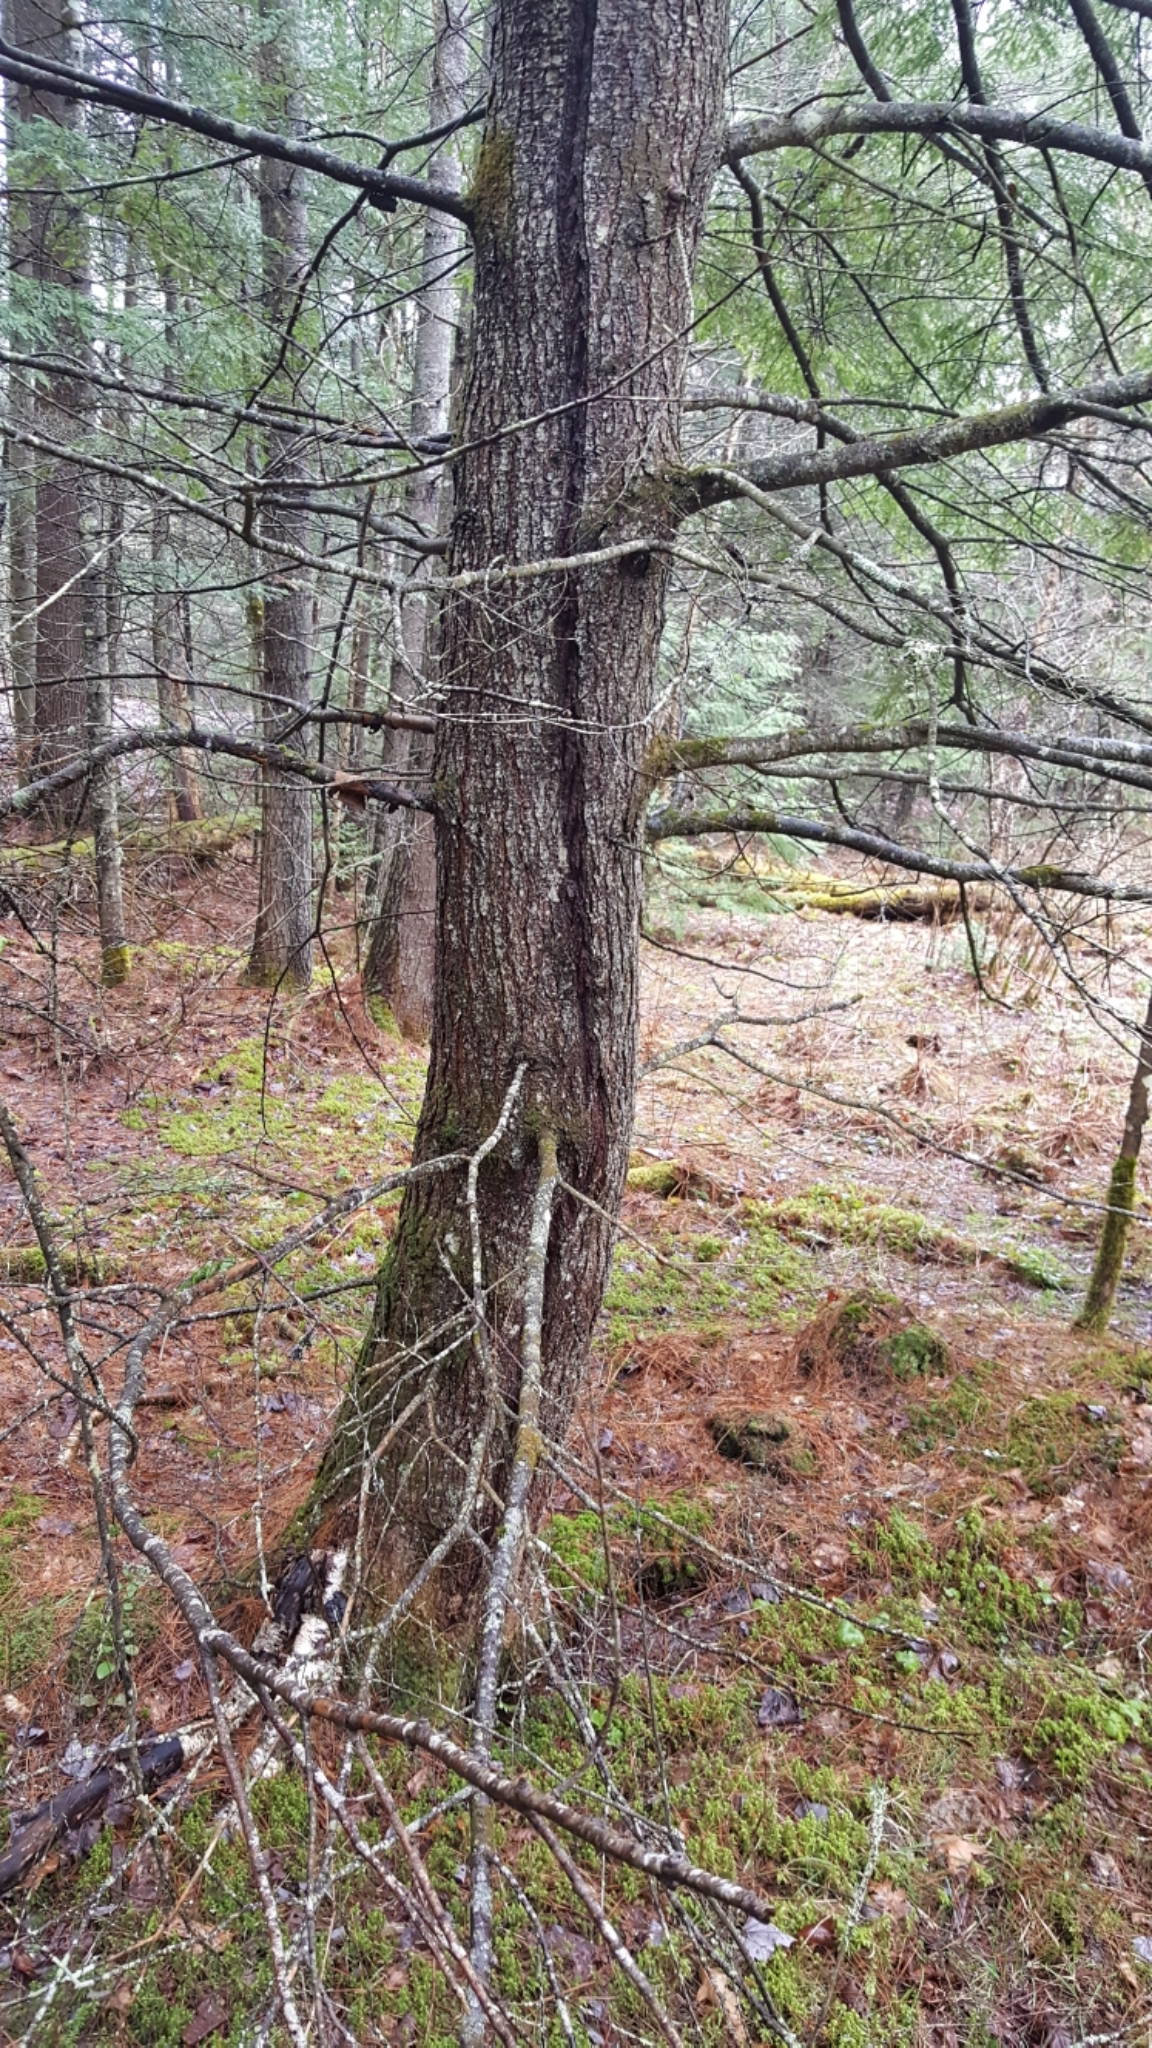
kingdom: Plantae
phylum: Tracheophyta
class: Pinopsida
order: Pinales
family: Pinaceae
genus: Tsuga
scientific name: Tsuga canadensis
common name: Eastern hemlock
